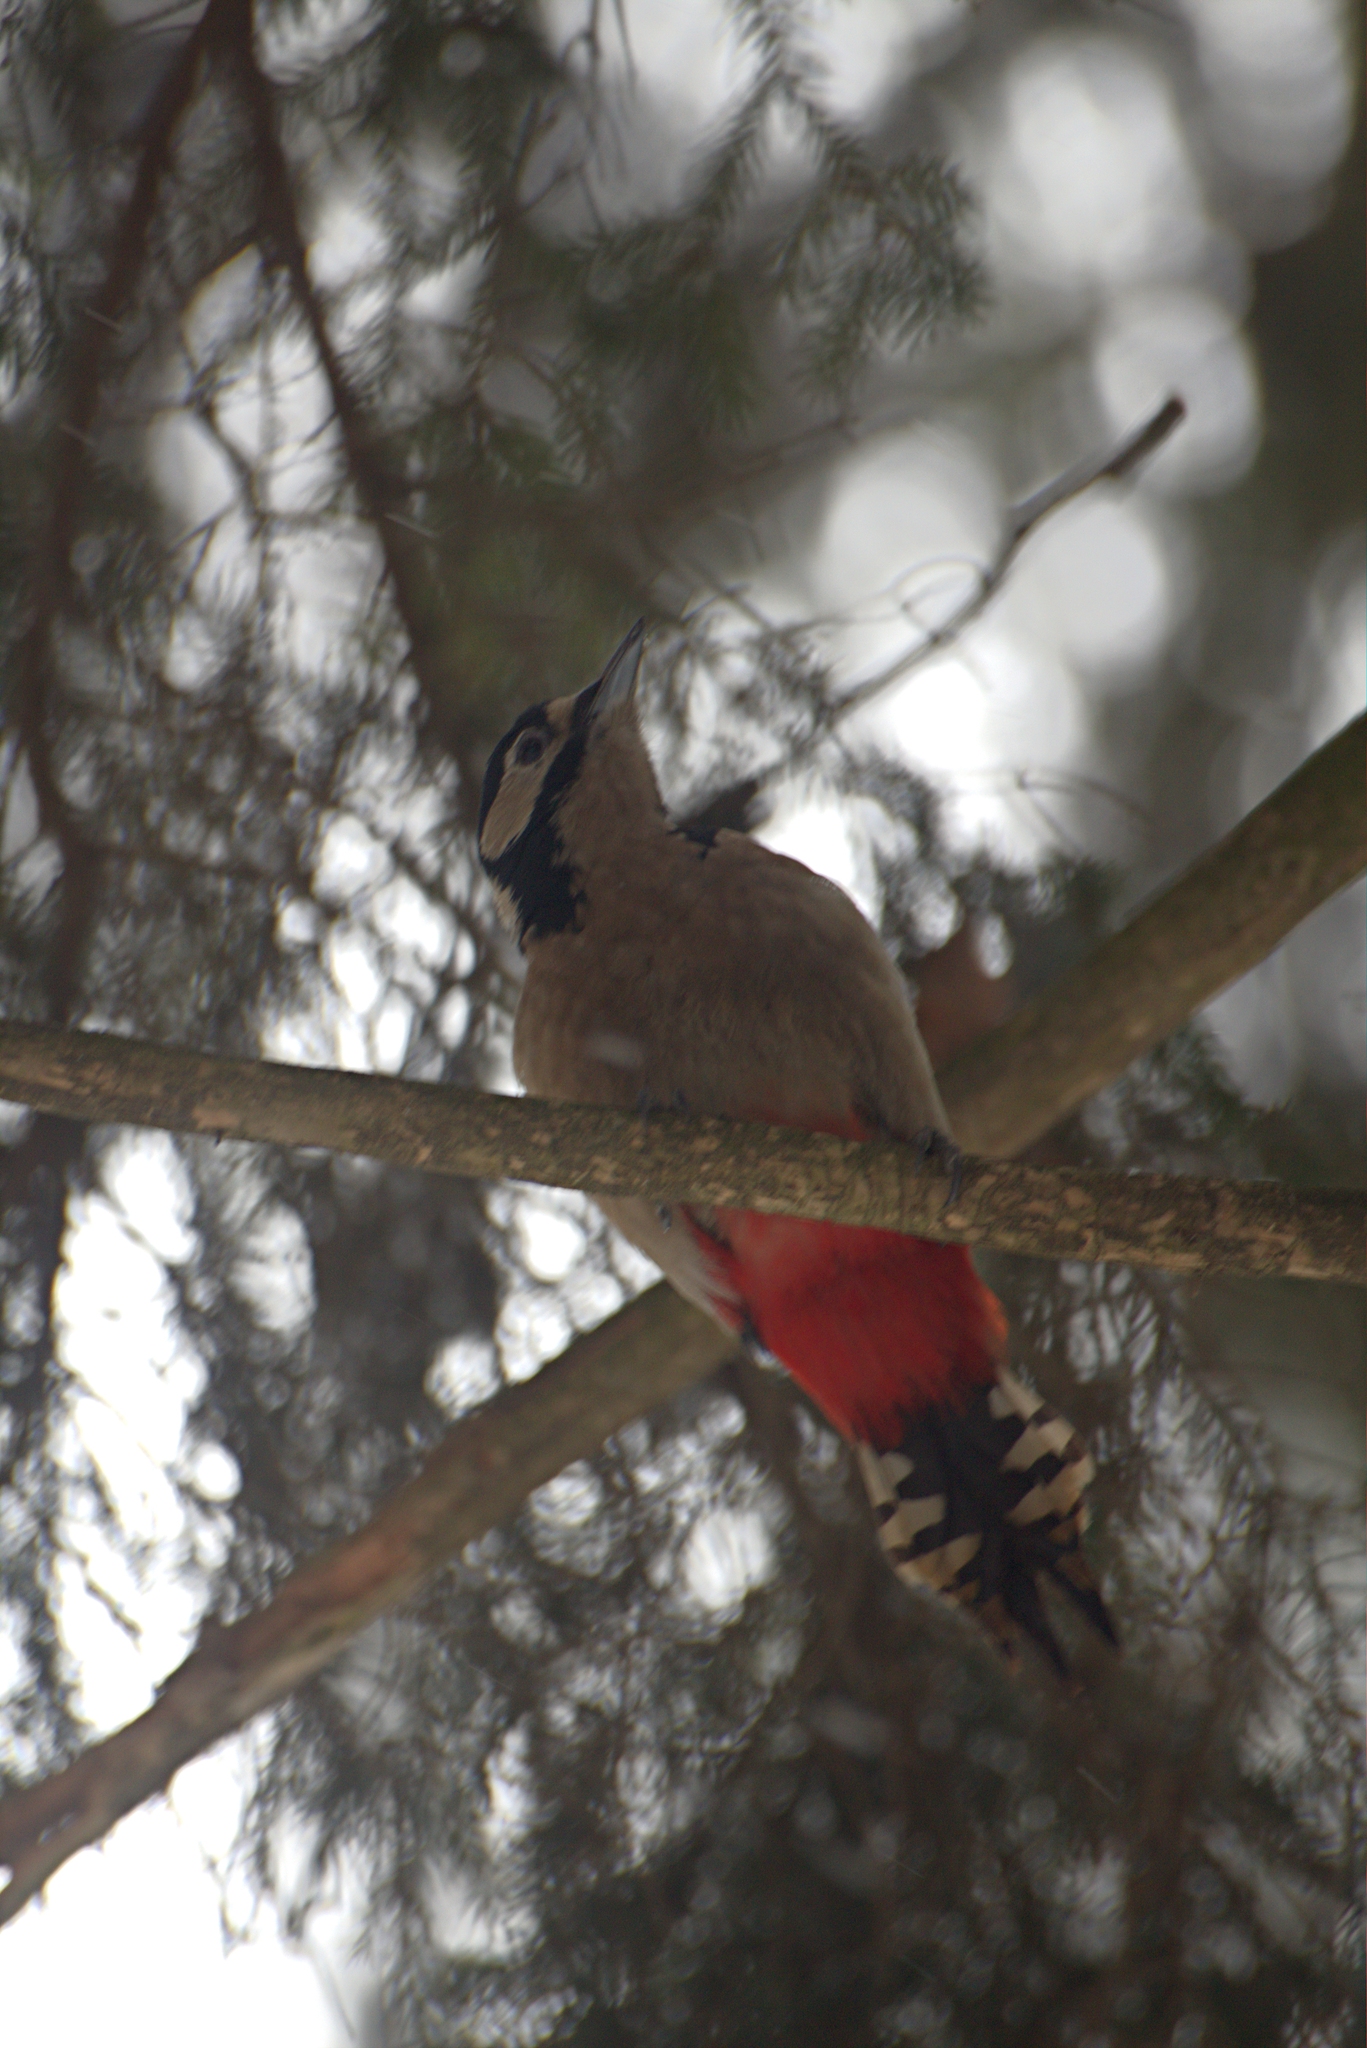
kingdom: Animalia
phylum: Chordata
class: Aves
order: Piciformes
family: Picidae
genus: Dendrocopos
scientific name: Dendrocopos major
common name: Great spotted woodpecker
